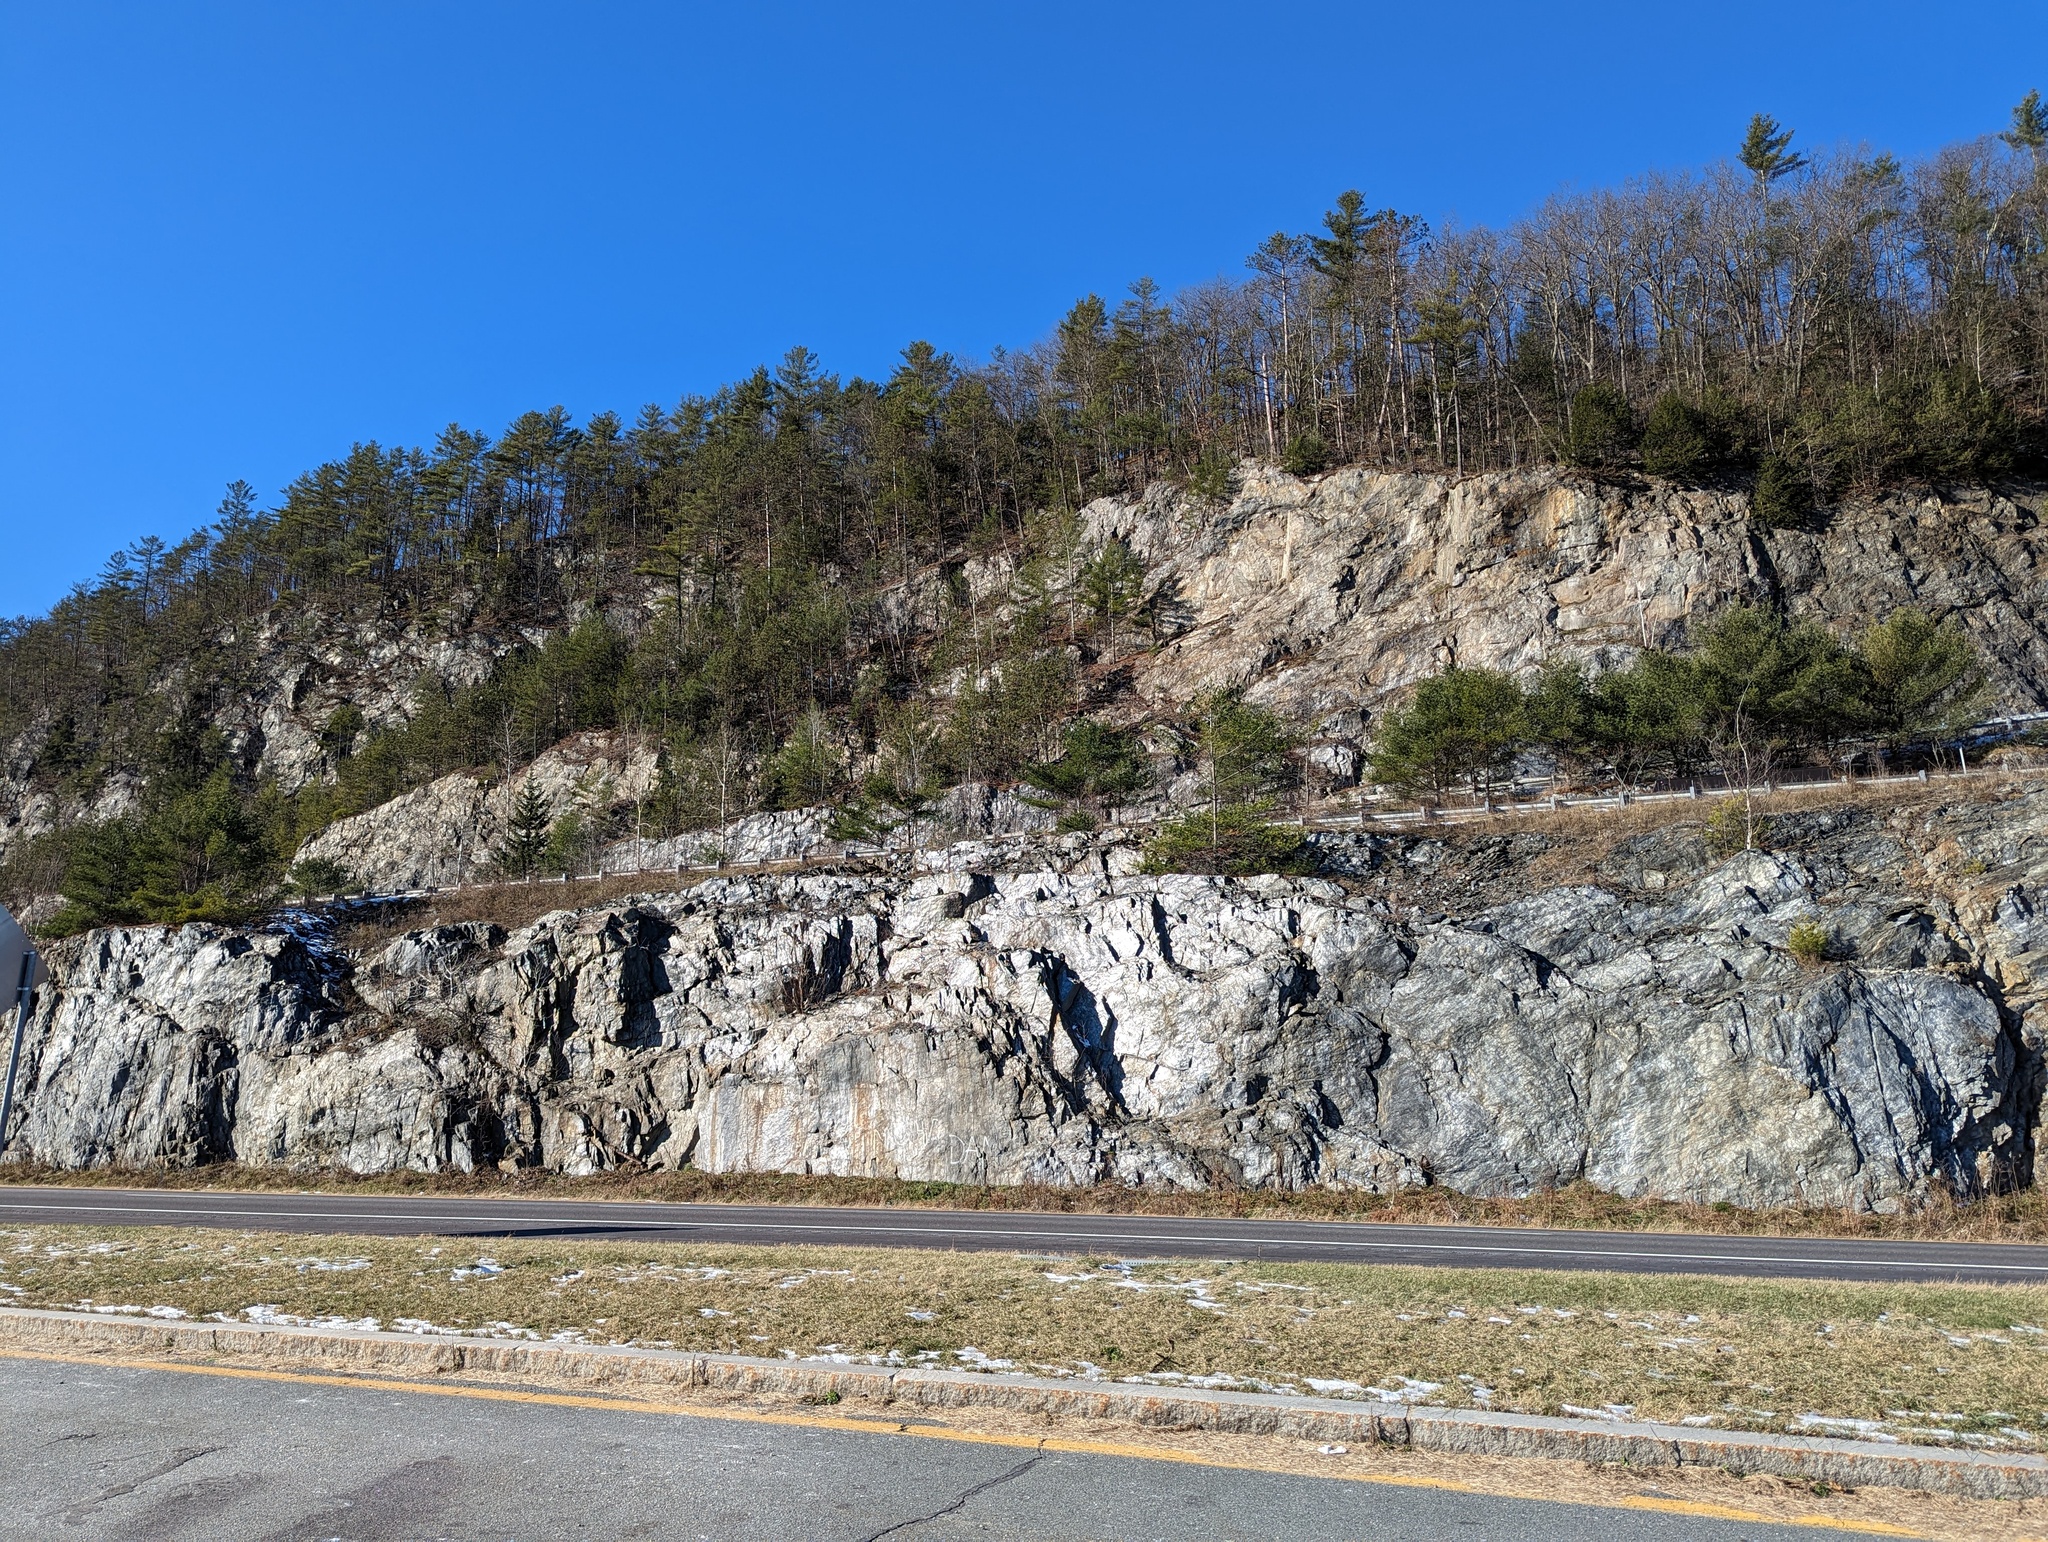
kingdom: Plantae
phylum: Tracheophyta
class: Pinopsida
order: Pinales
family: Pinaceae
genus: Pinus
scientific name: Pinus strobus
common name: Weymouth pine
